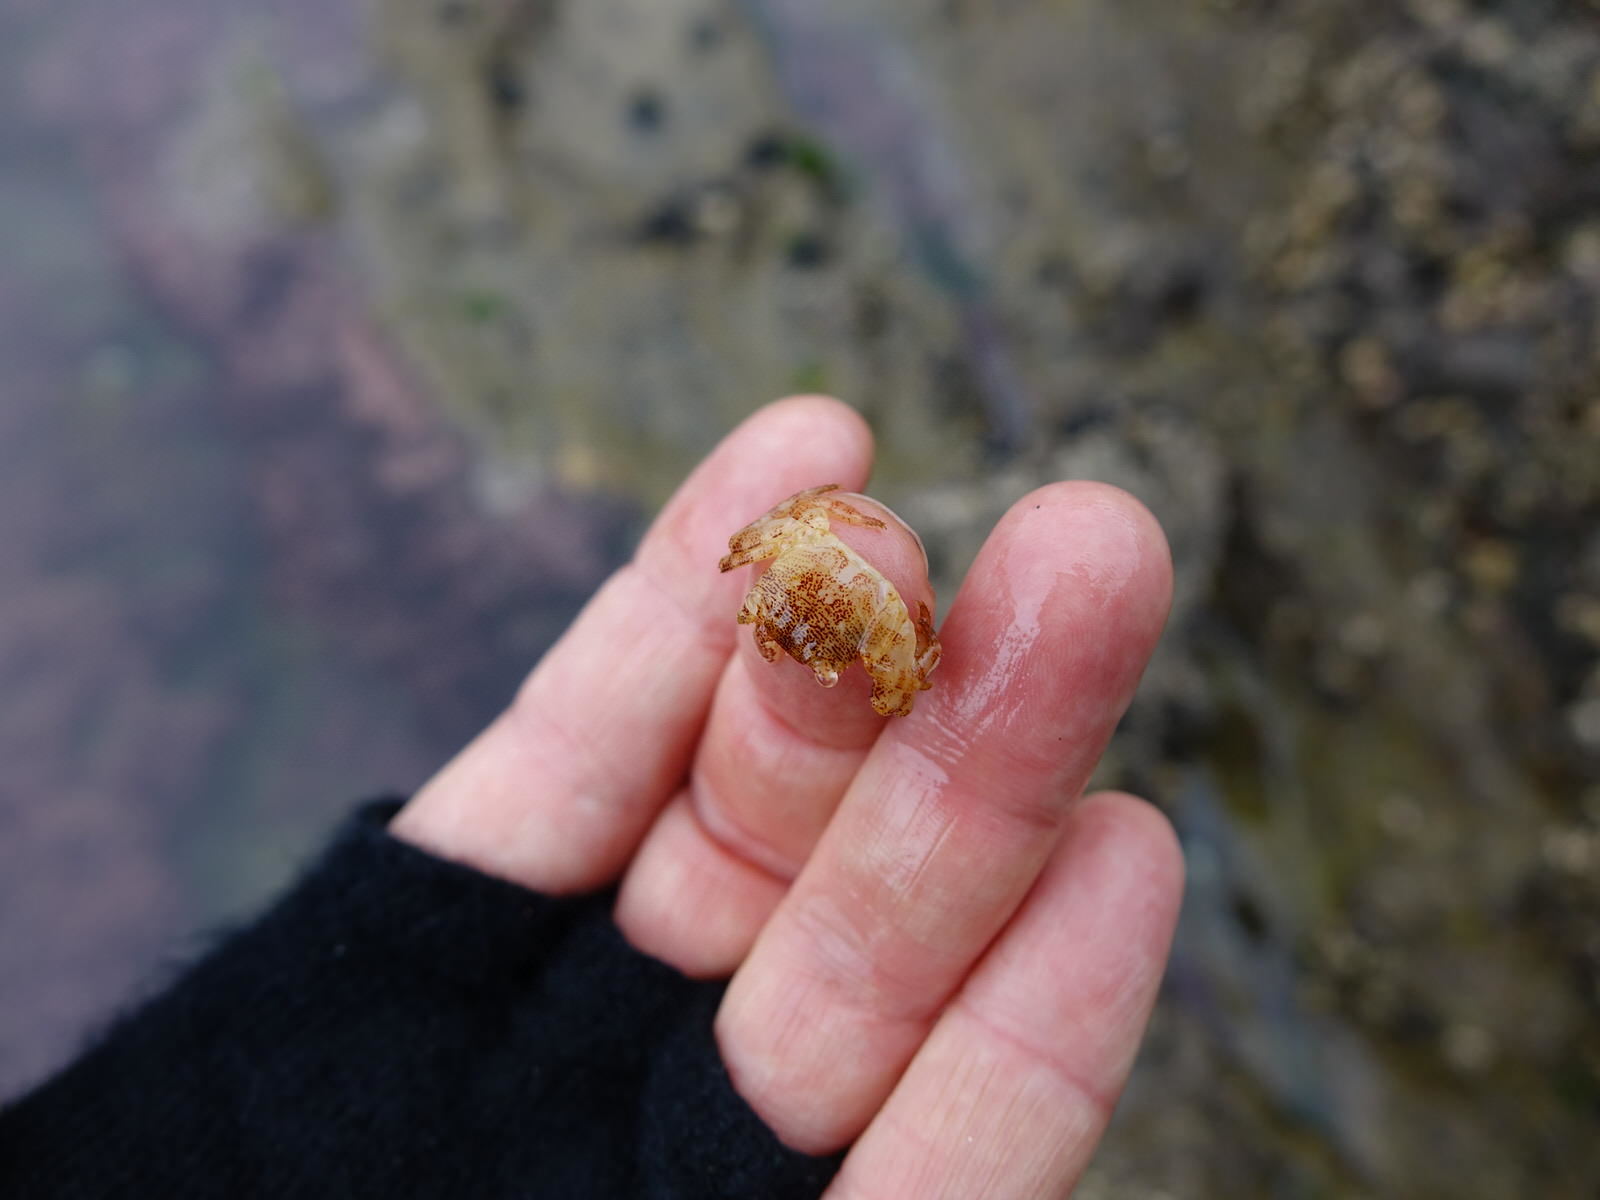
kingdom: Animalia
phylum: Arthropoda
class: Malacostraca
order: Decapoda
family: Grapsidae
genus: Leptograpsus
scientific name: Leptograpsus variegatus
